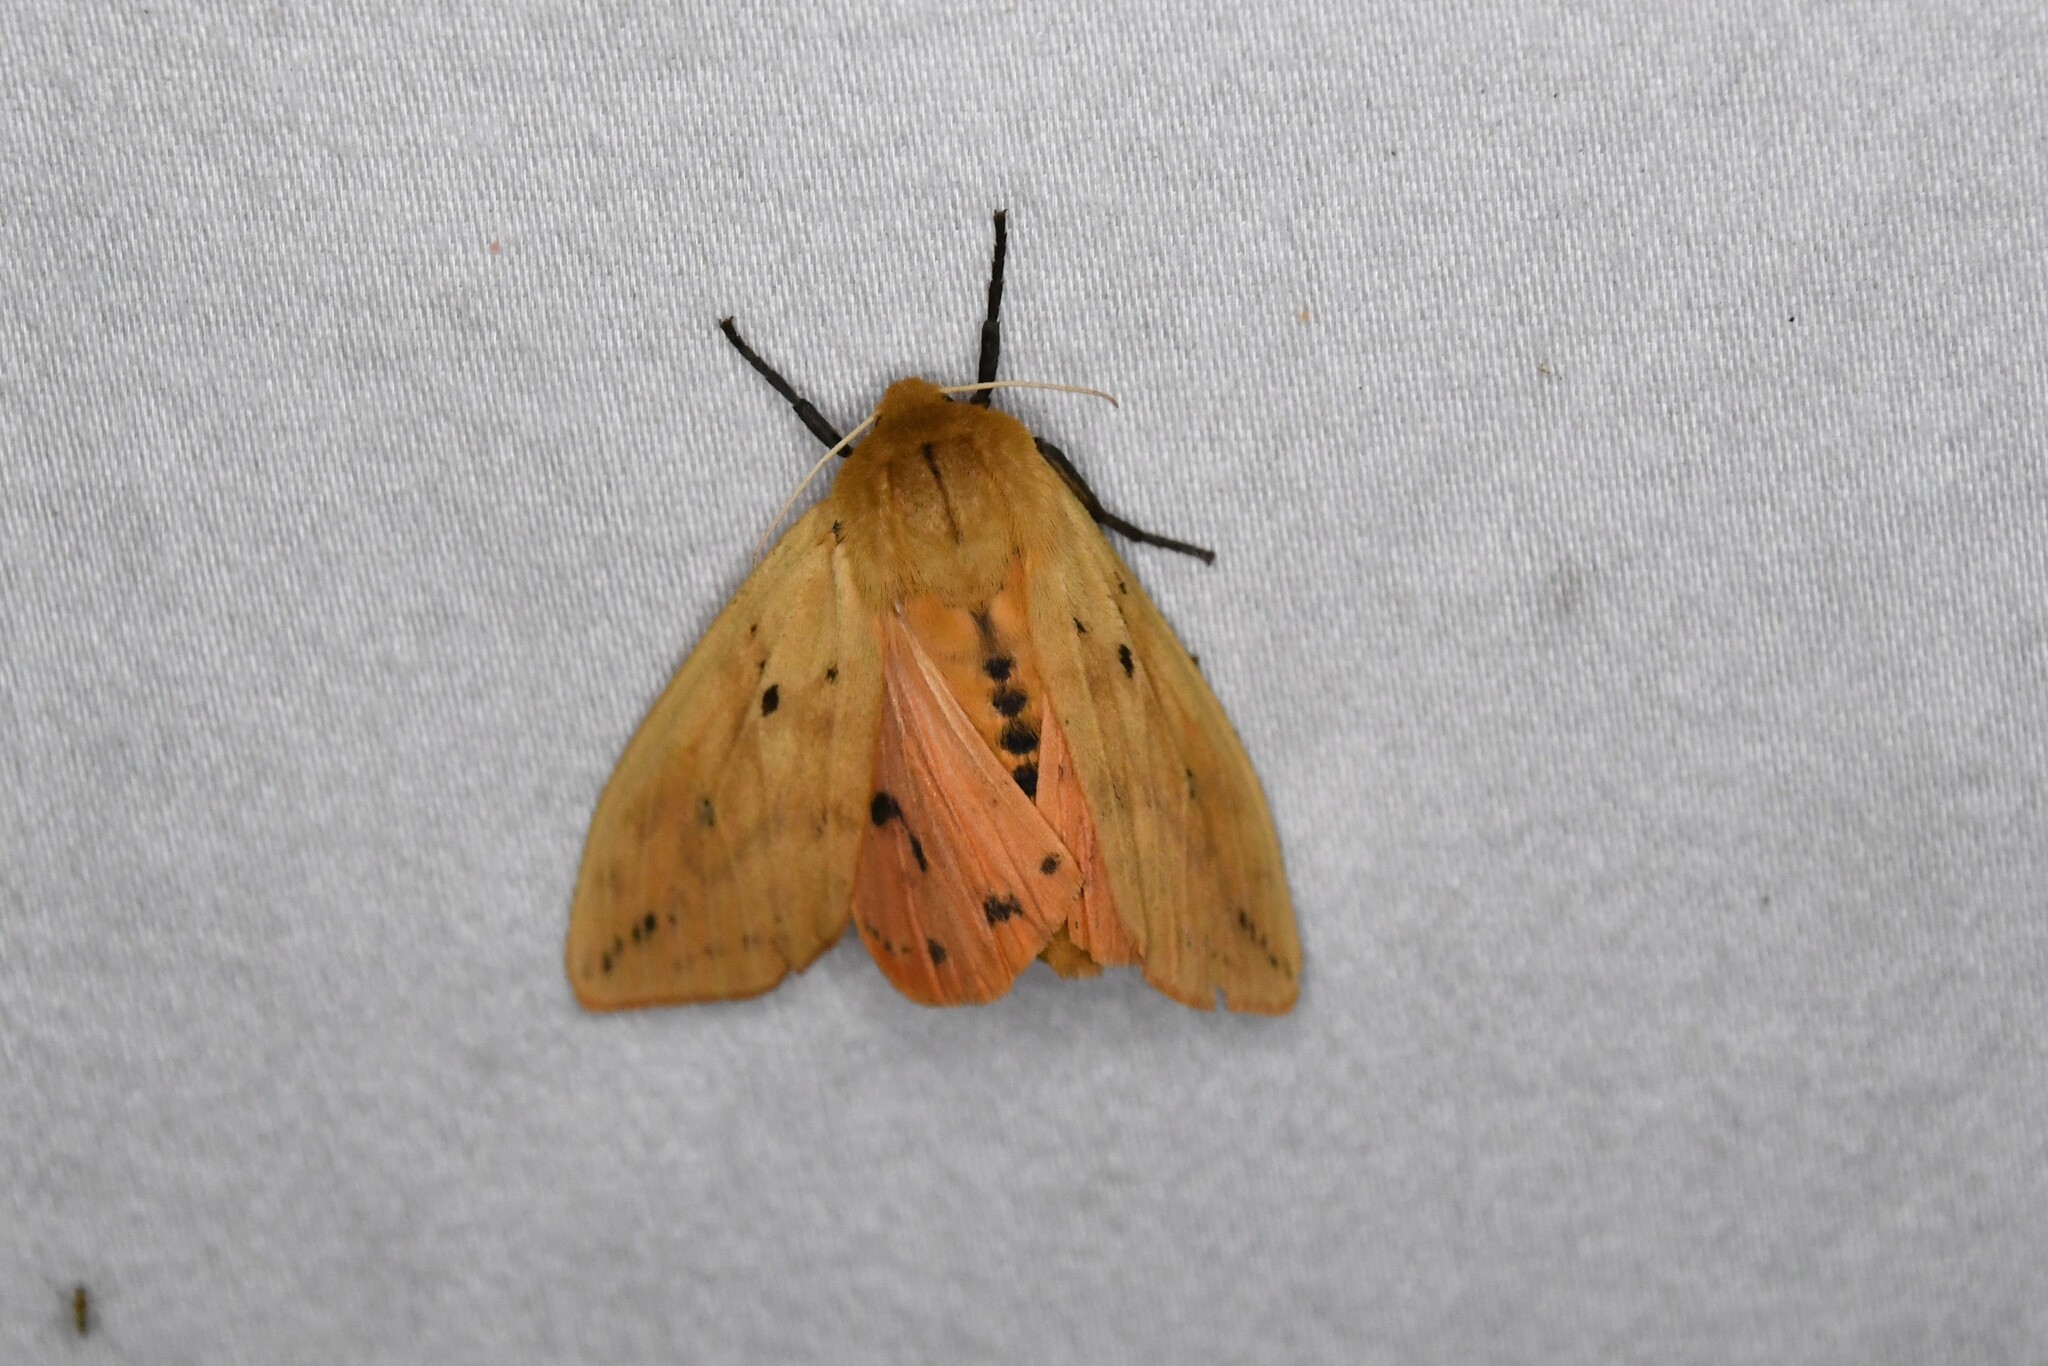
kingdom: Animalia
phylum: Arthropoda
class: Insecta
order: Lepidoptera
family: Erebidae
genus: Pyrrharctia
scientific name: Pyrrharctia isabella
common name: Isabella tiger moth
